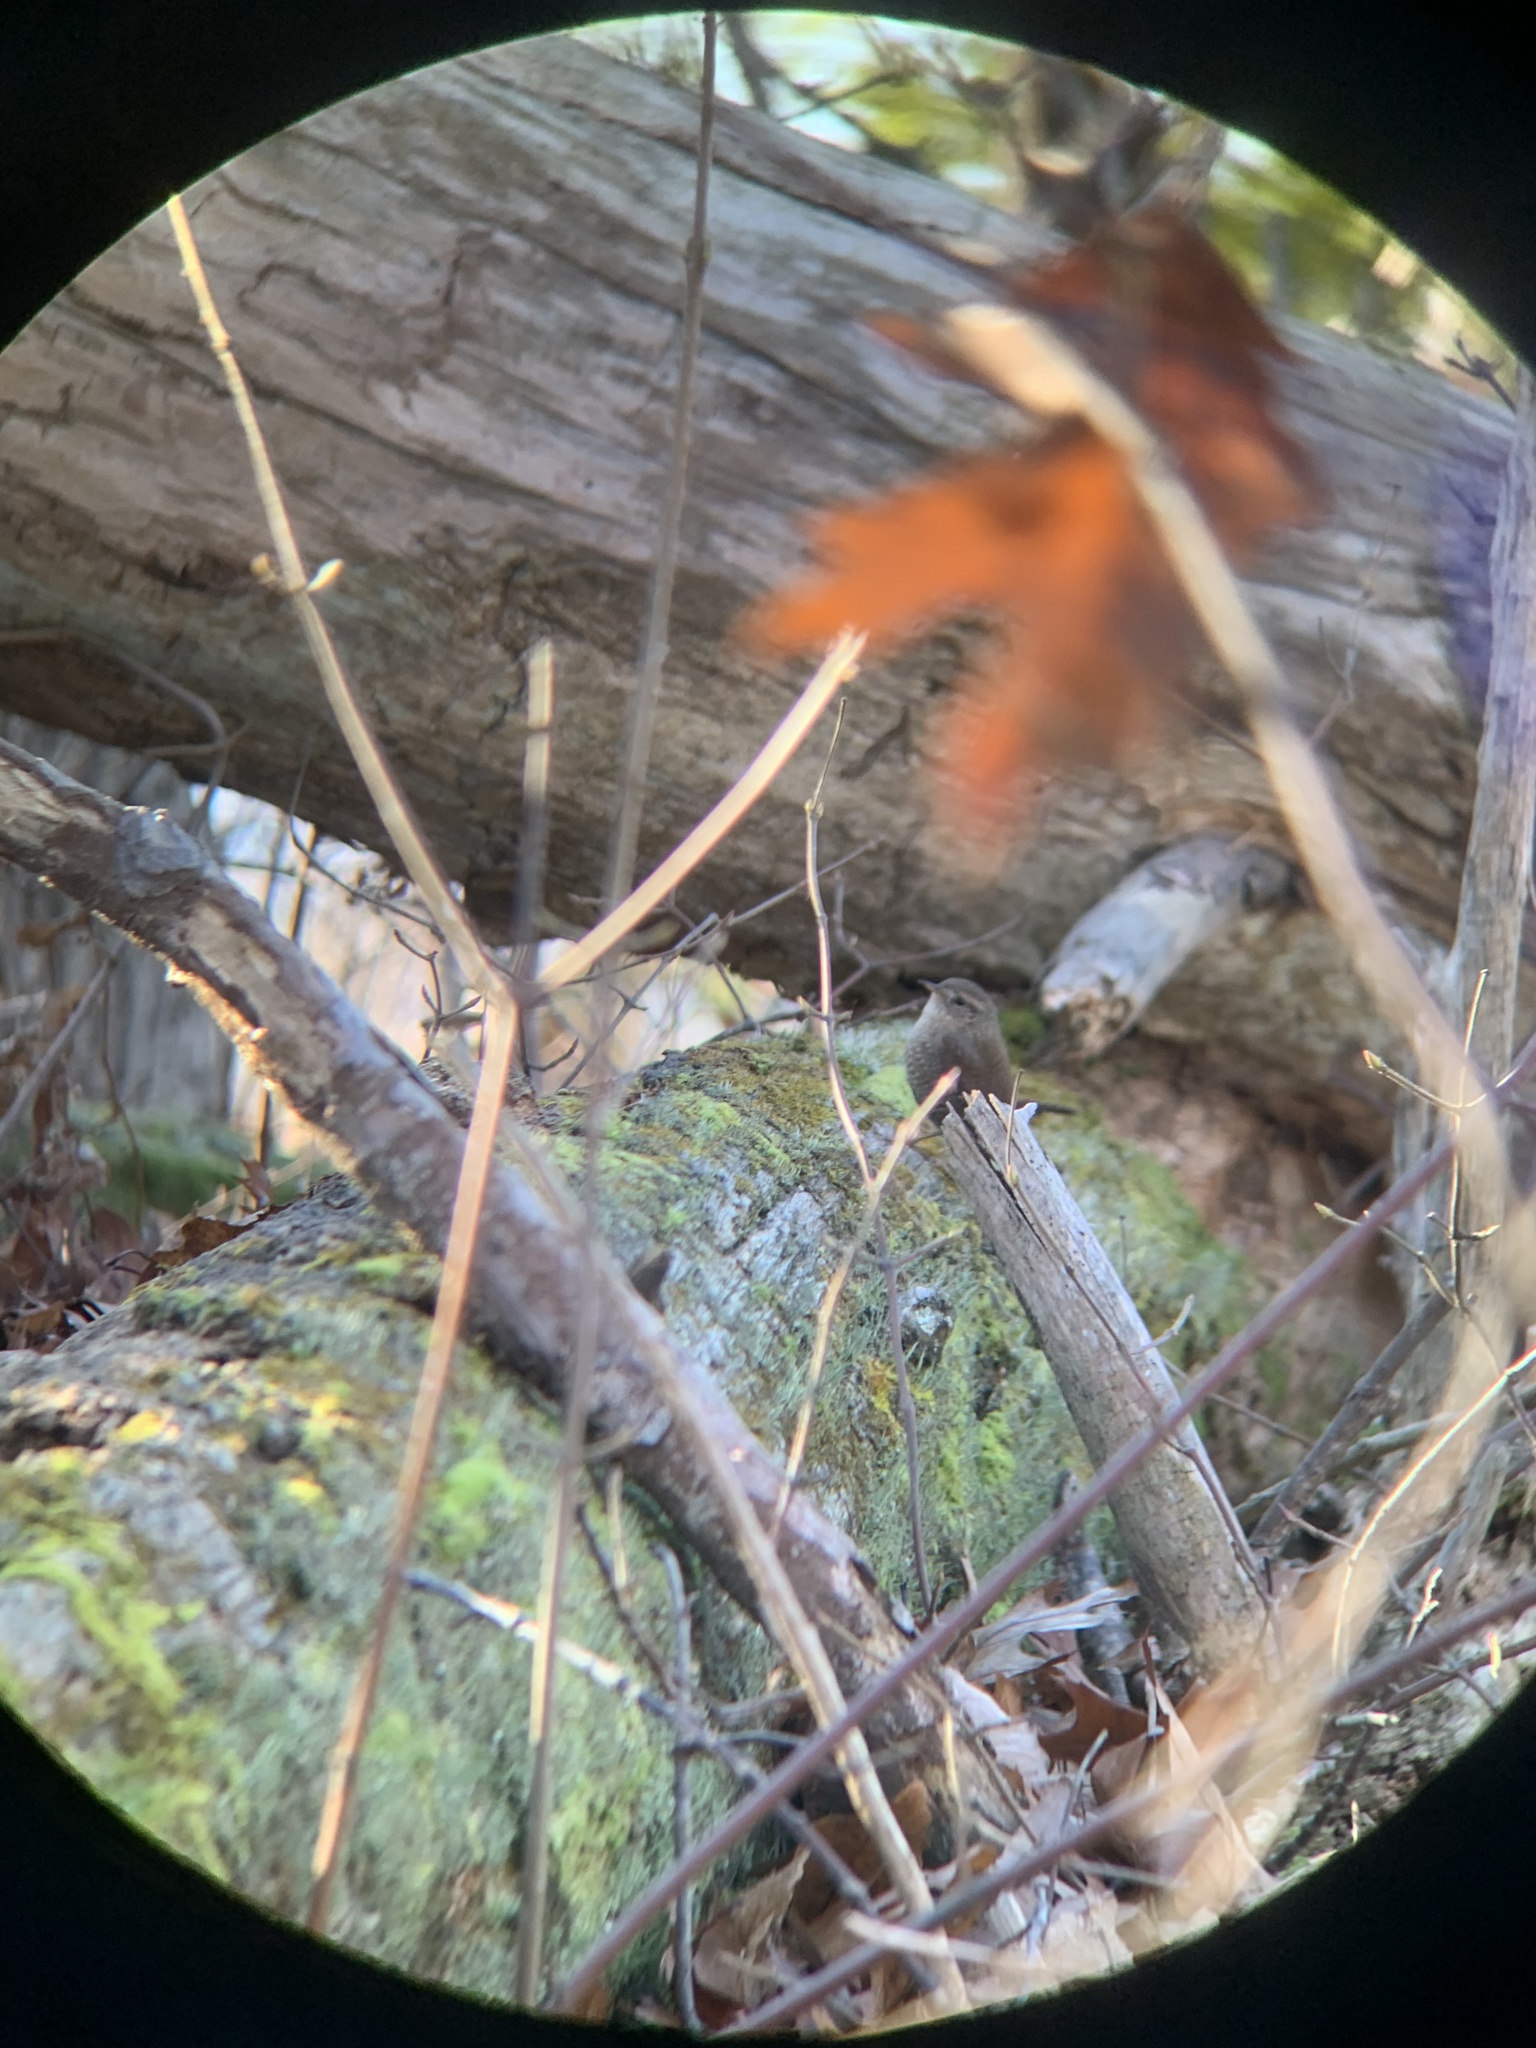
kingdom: Animalia
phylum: Chordata
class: Aves
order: Passeriformes
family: Troglodytidae
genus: Troglodytes
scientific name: Troglodytes hiemalis
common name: Winter wren
